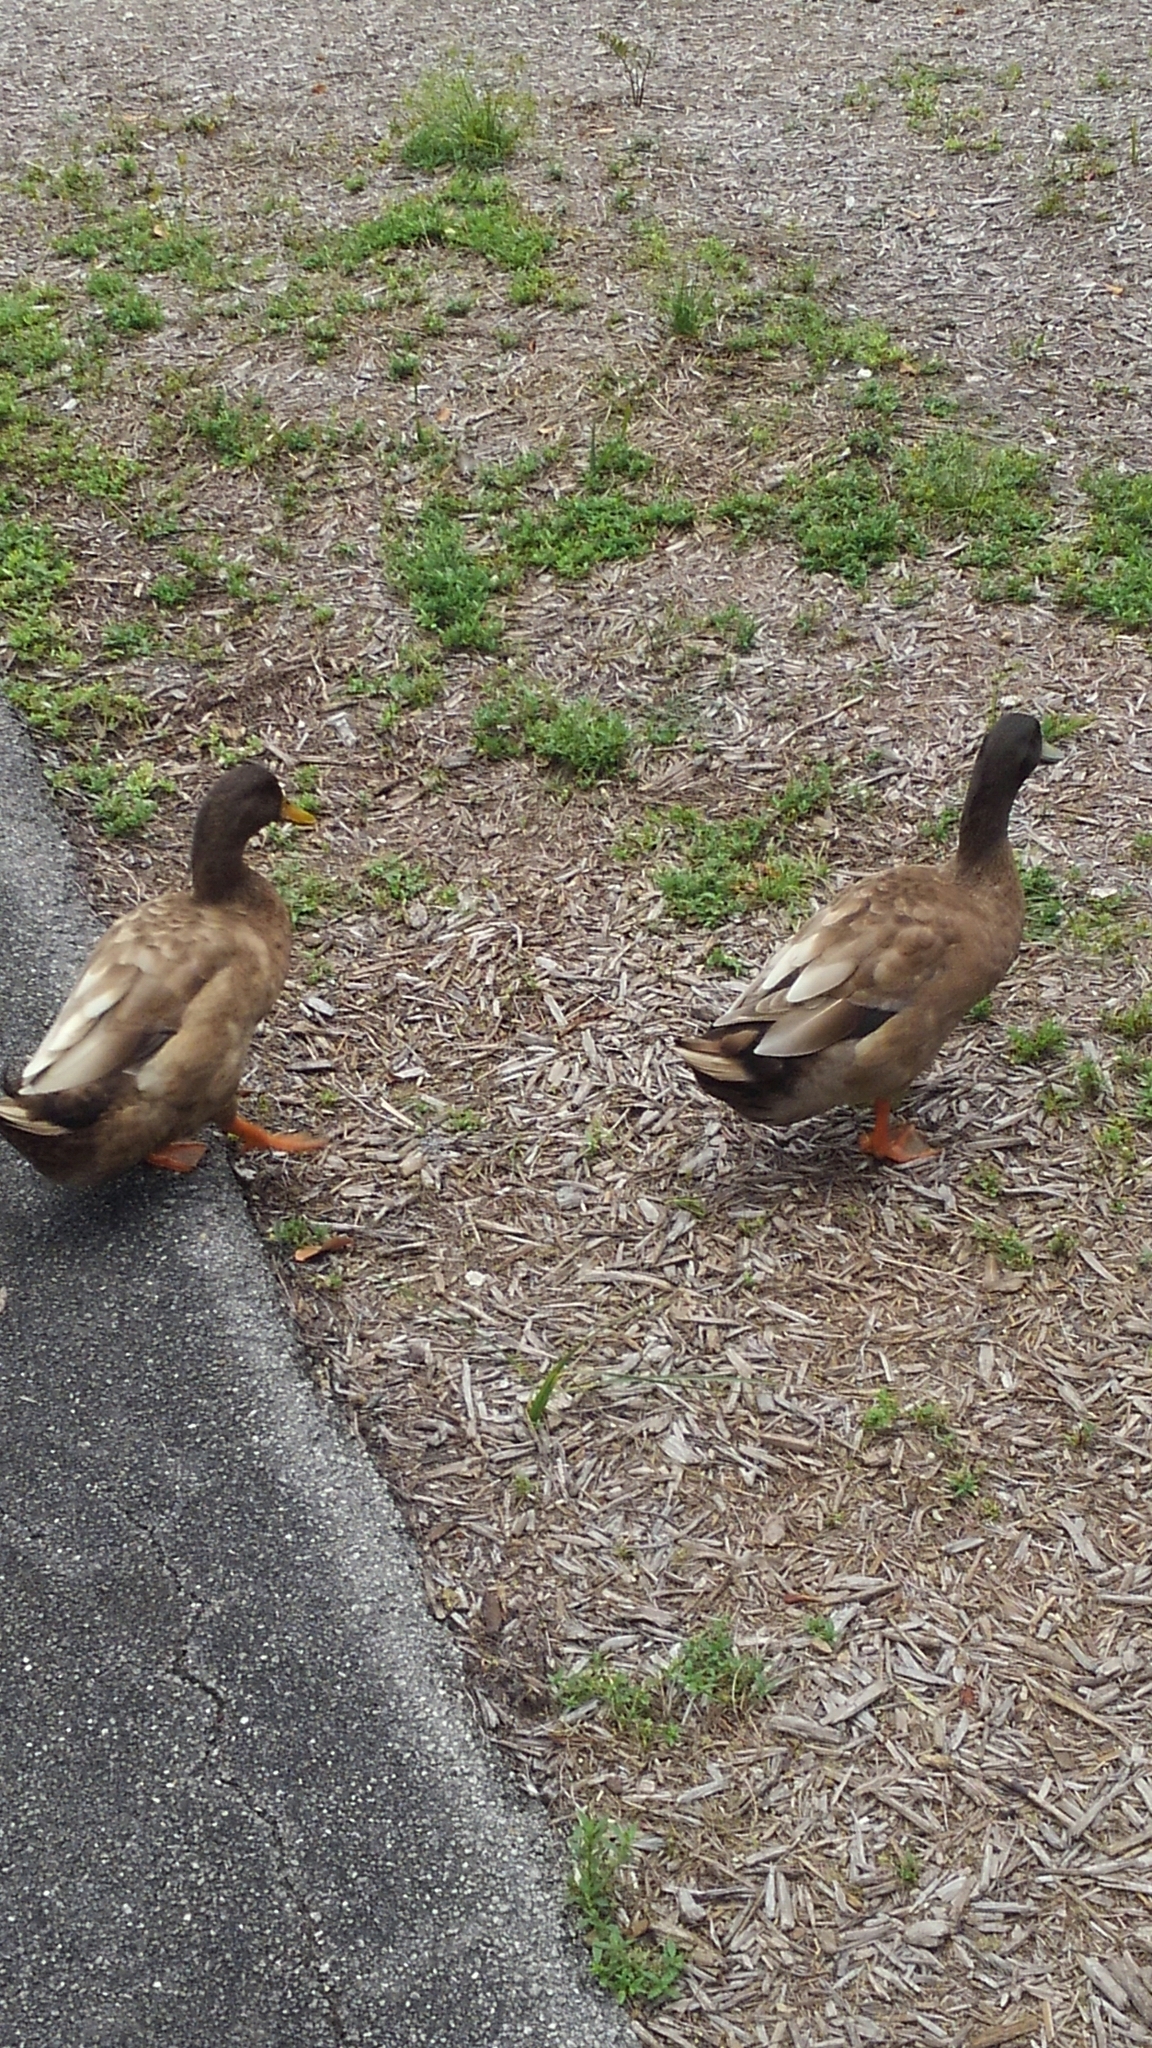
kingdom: Animalia
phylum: Chordata
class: Aves
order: Anseriformes
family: Anatidae
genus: Anas
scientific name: Anas platyrhynchos
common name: Mallard
